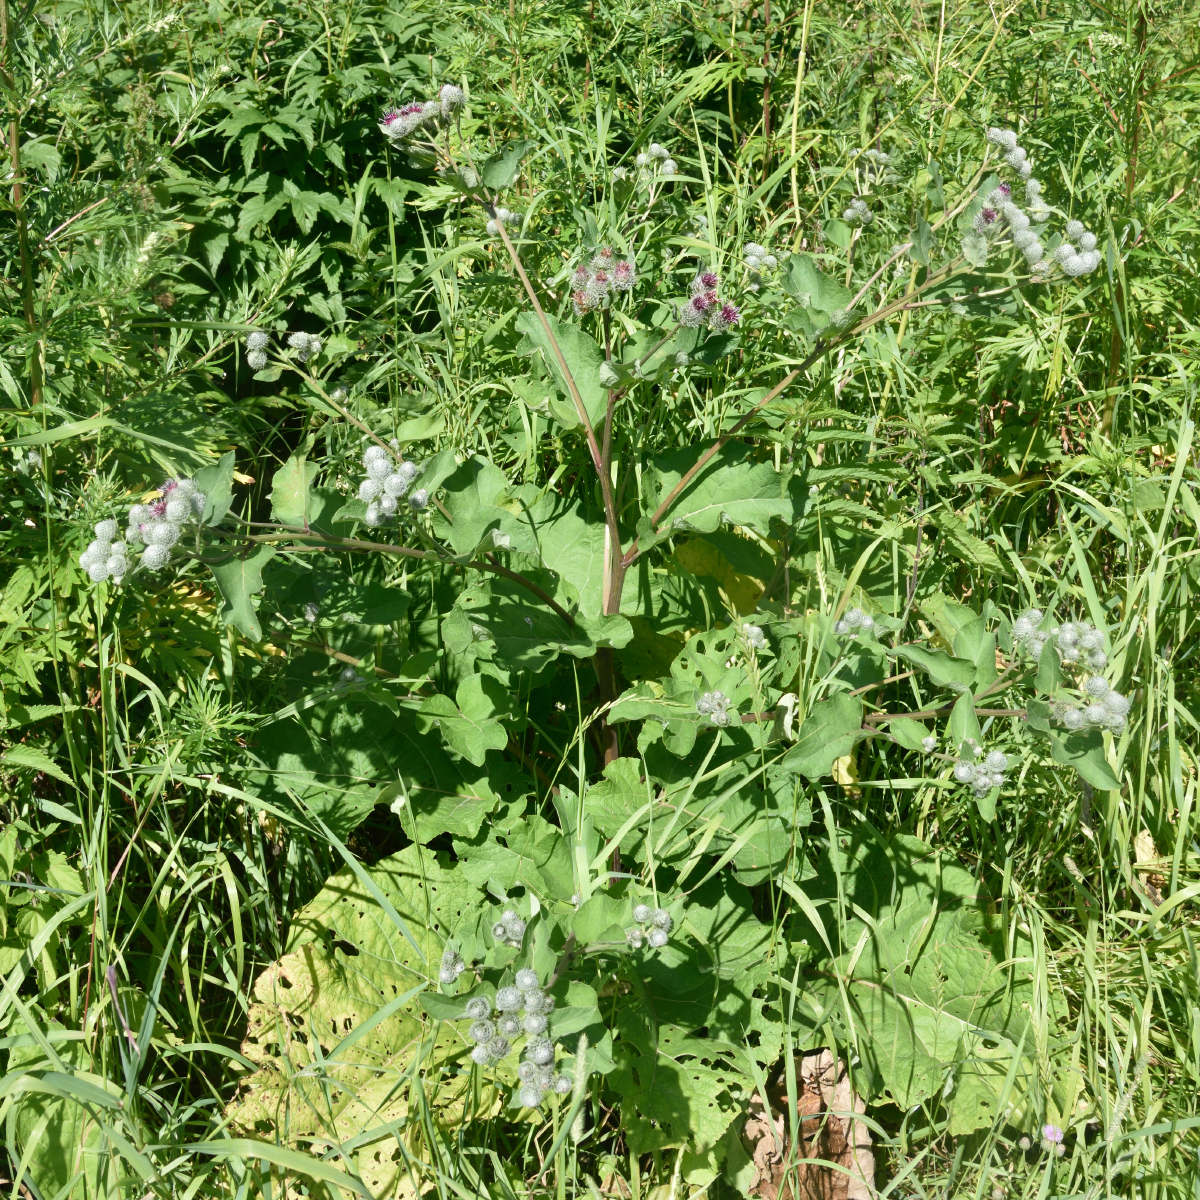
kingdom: Plantae
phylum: Tracheophyta
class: Magnoliopsida
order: Asterales
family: Asteraceae
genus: Arctium
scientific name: Arctium tomentosum
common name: Woolly burdock
